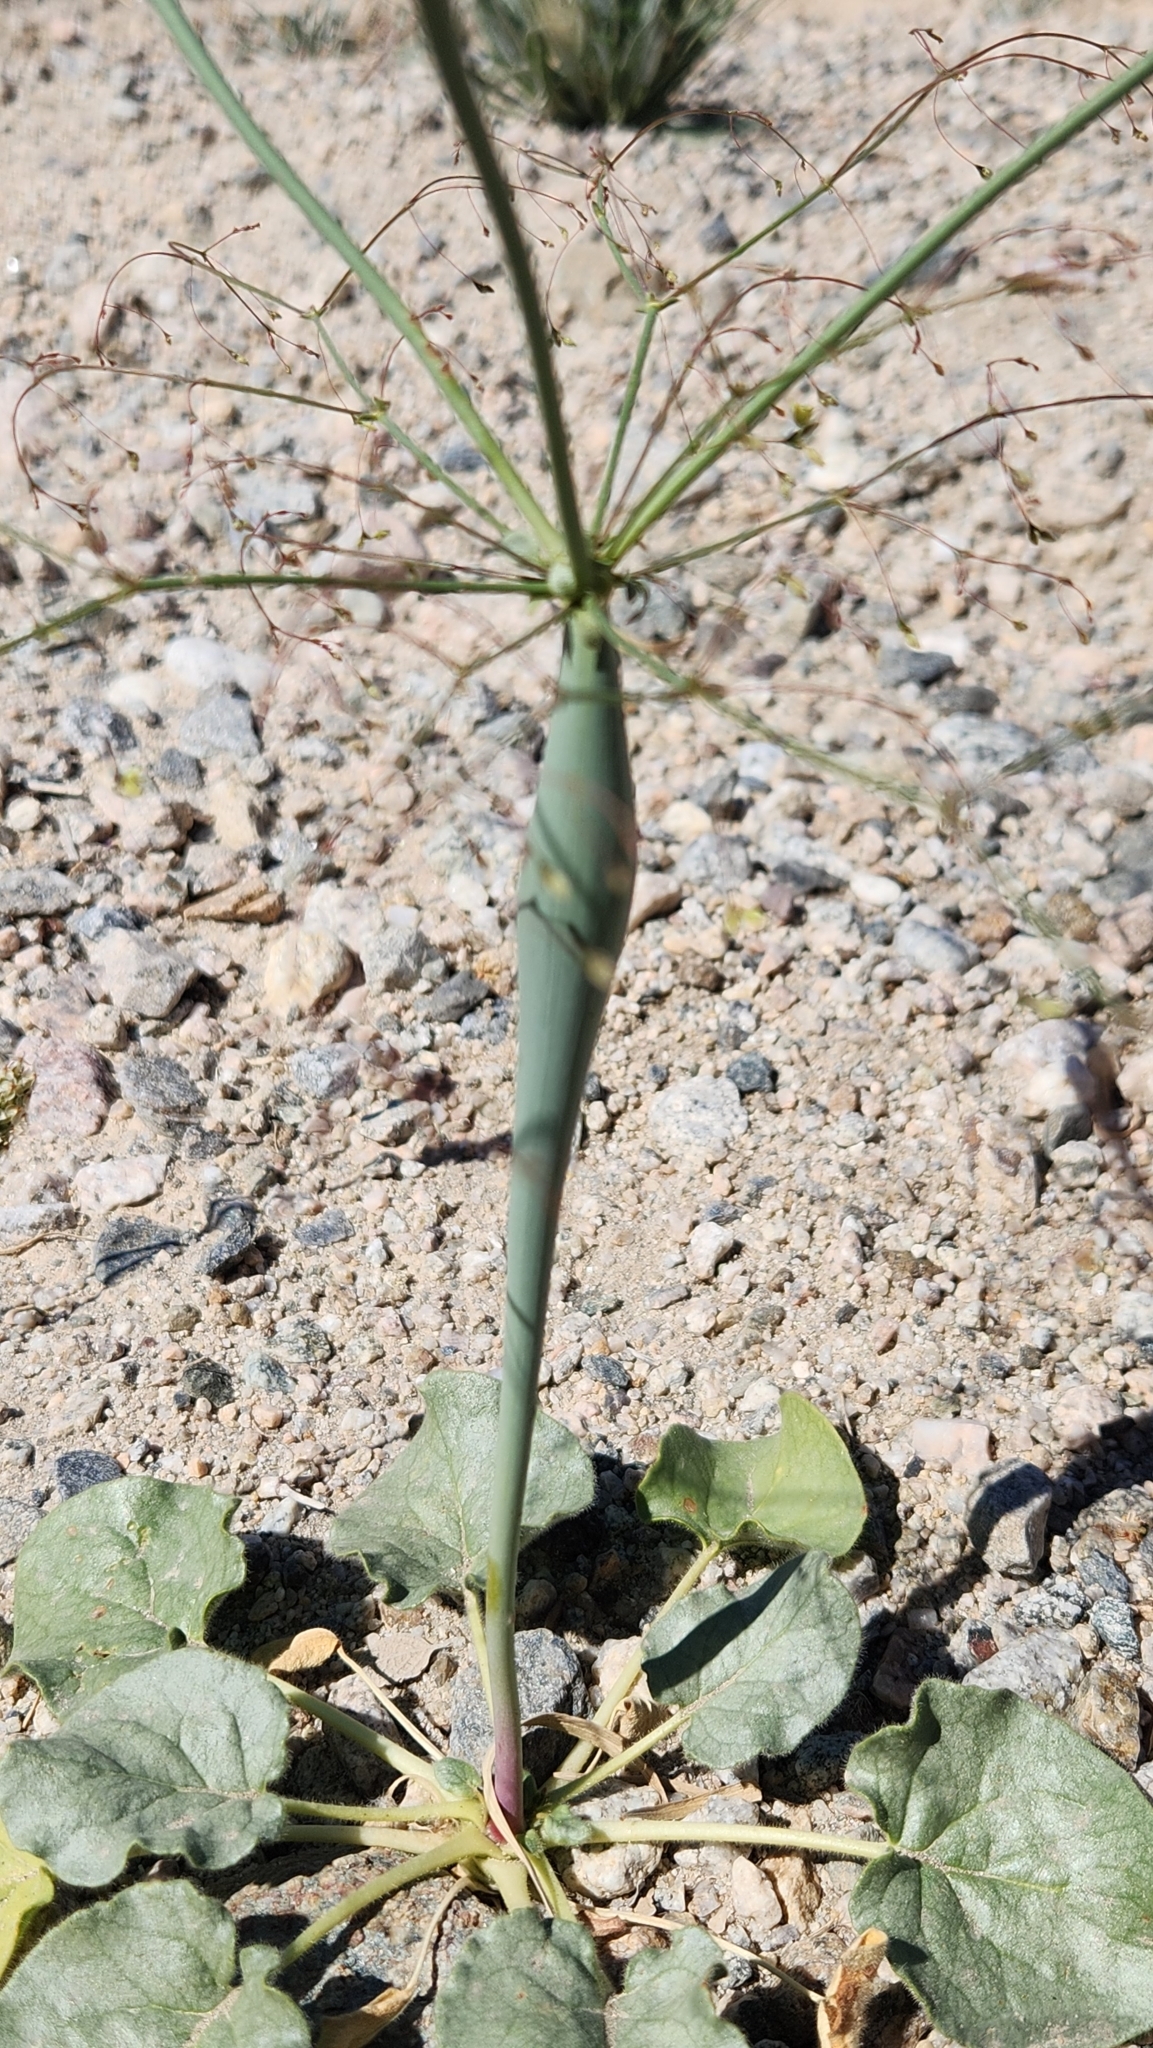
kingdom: Plantae
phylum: Tracheophyta
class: Magnoliopsida
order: Caryophyllales
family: Polygonaceae
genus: Eriogonum
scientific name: Eriogonum inflatum
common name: Desert trumpet
